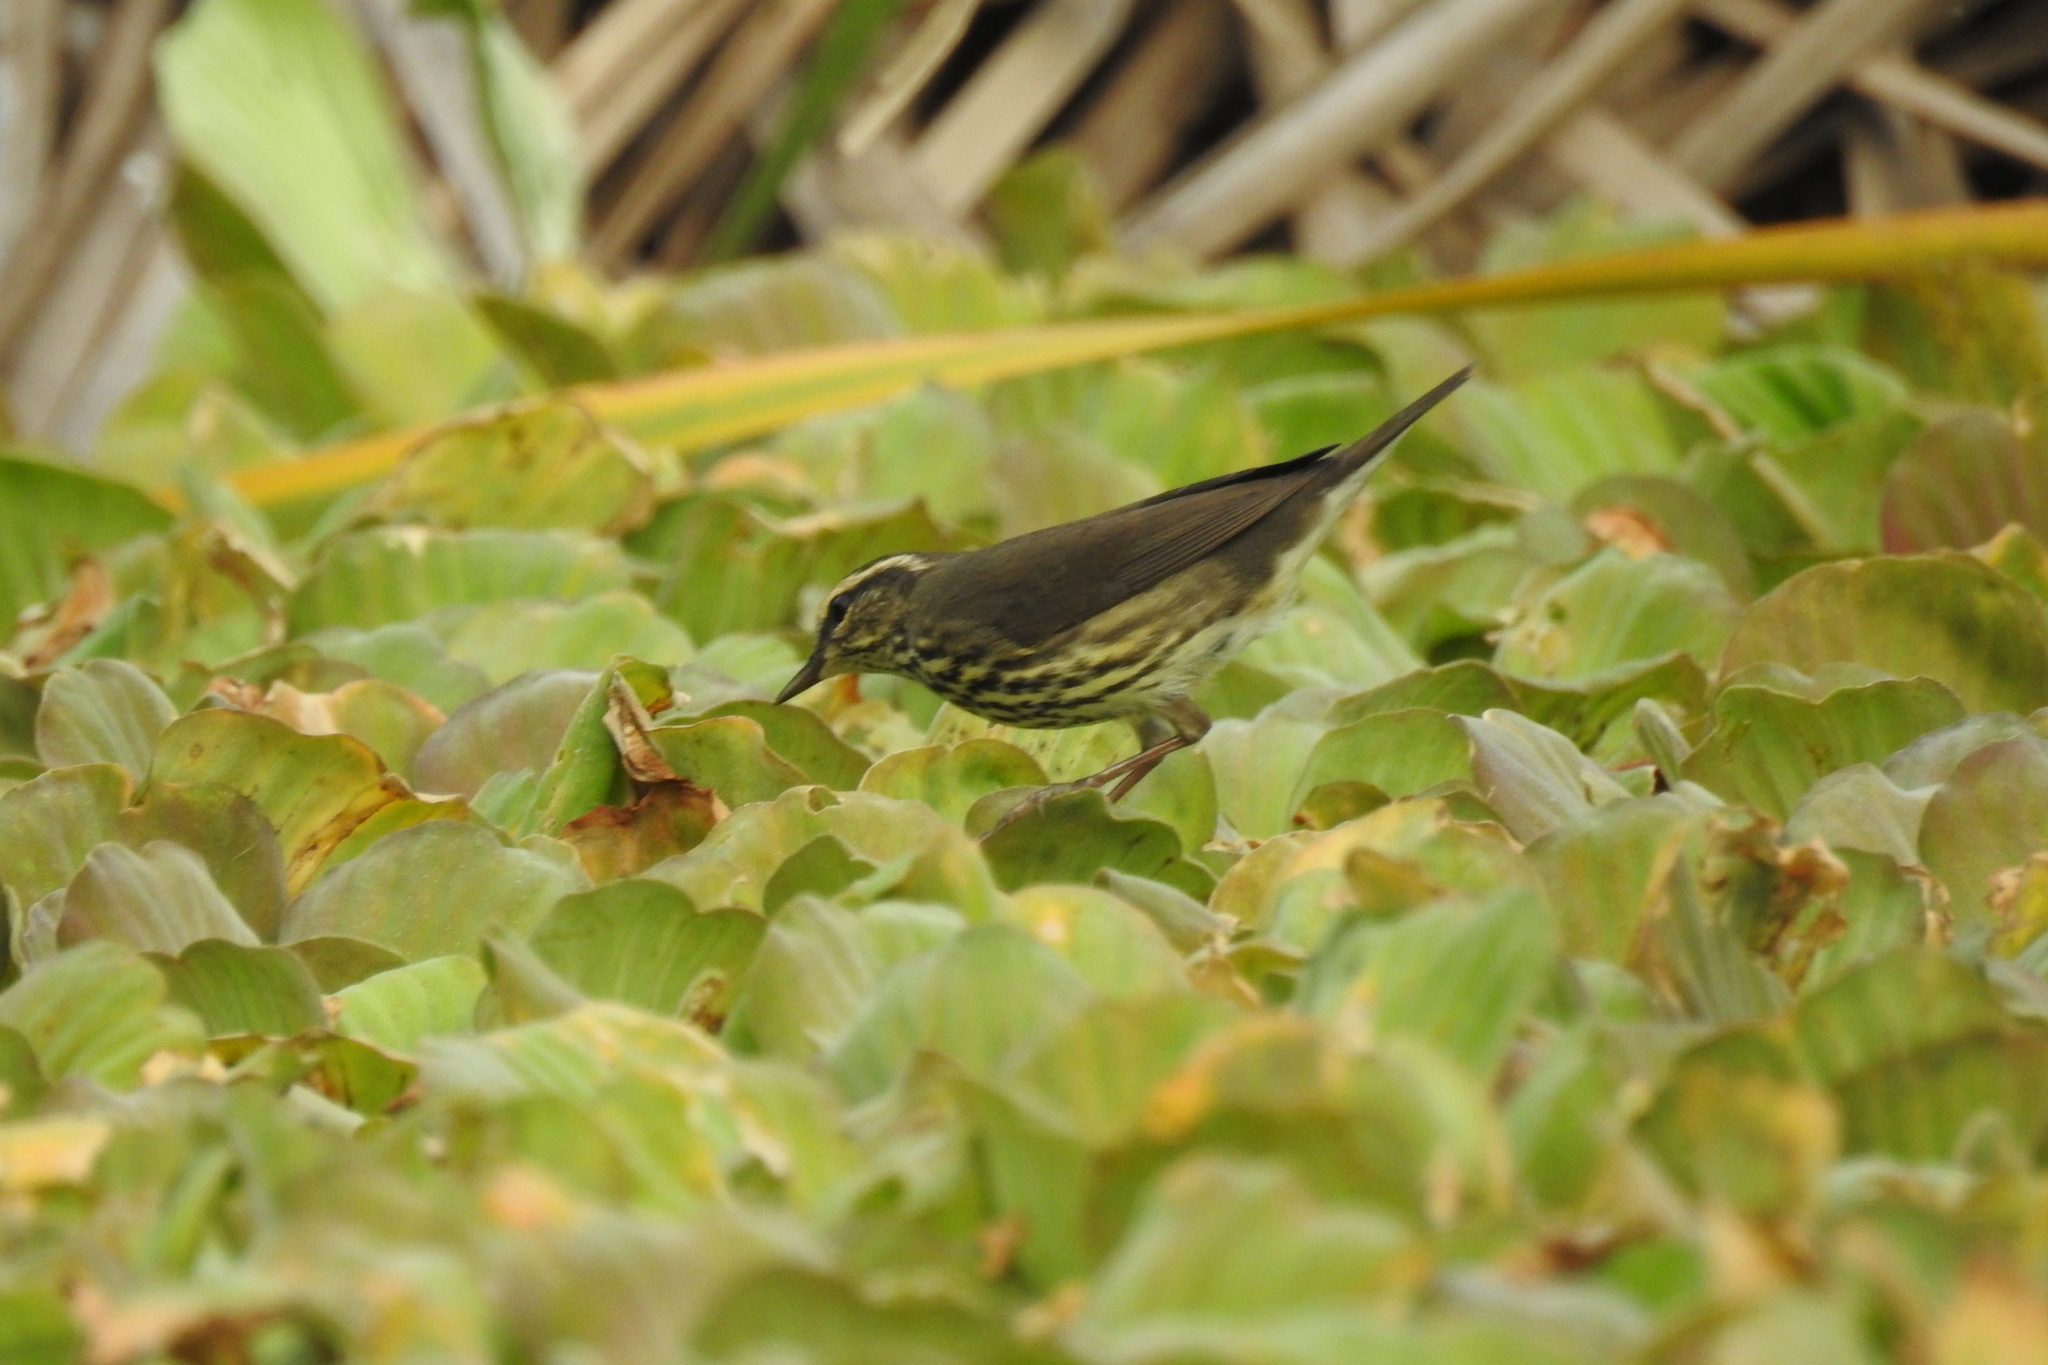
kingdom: Animalia
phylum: Chordata
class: Aves
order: Passeriformes
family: Parulidae
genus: Parkesia
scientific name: Parkesia noveboracensis
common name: Northern waterthrush
